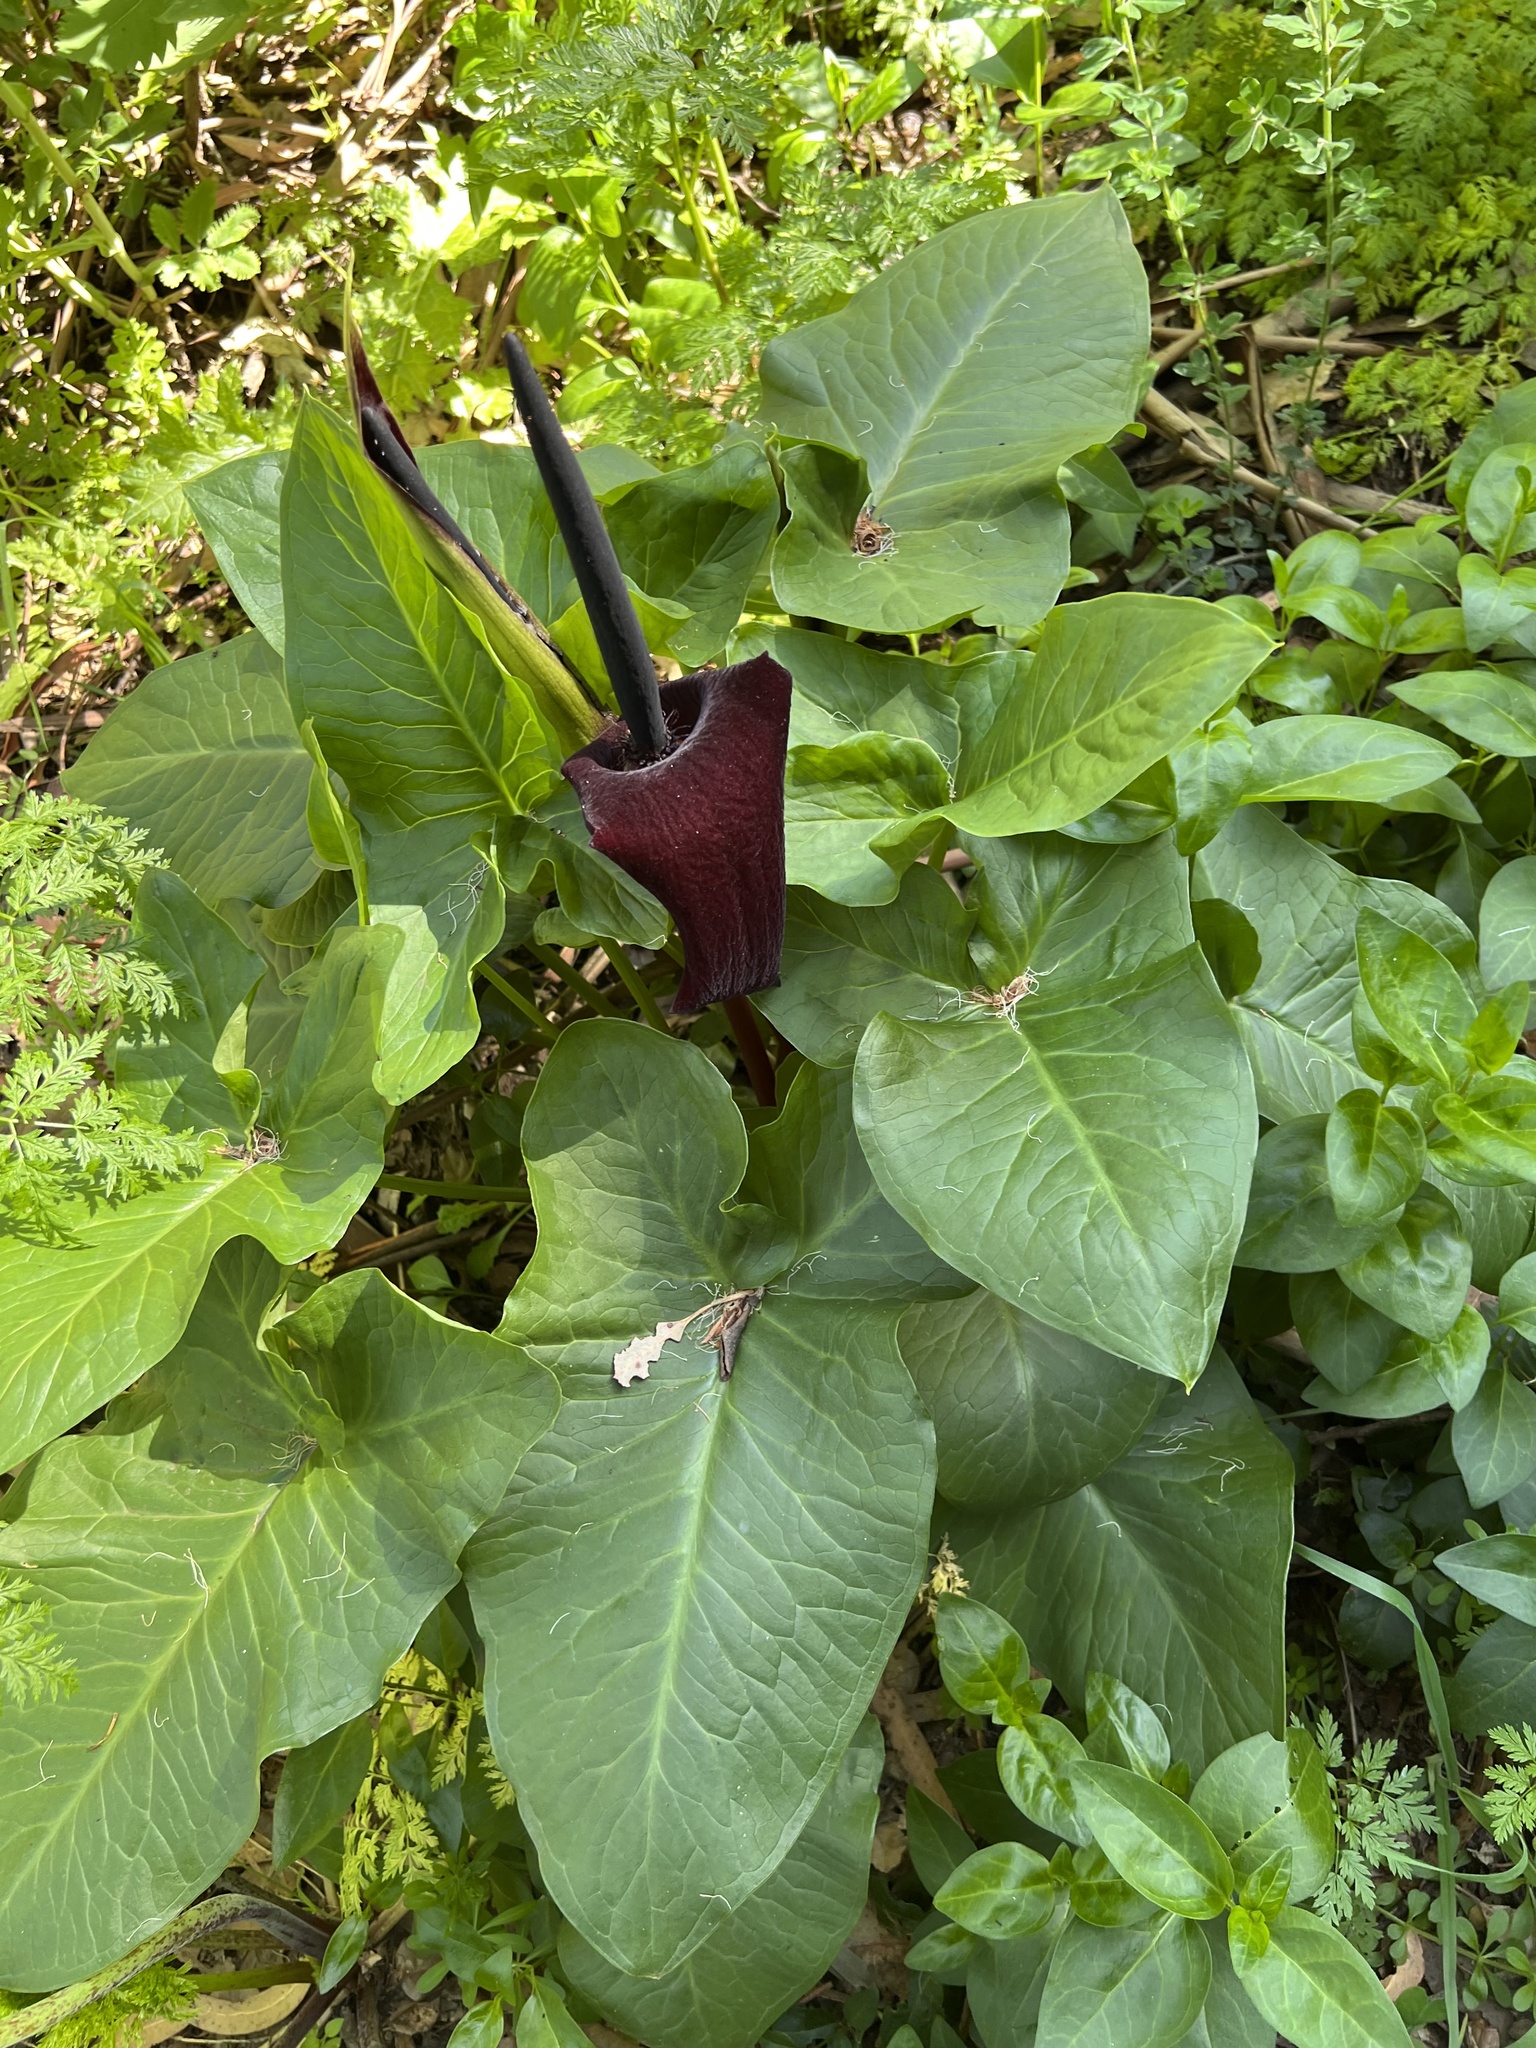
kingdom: Plantae
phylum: Tracheophyta
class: Liliopsida
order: Alismatales
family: Araceae
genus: Arum
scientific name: Arum palaestinum
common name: Solomon's lily
